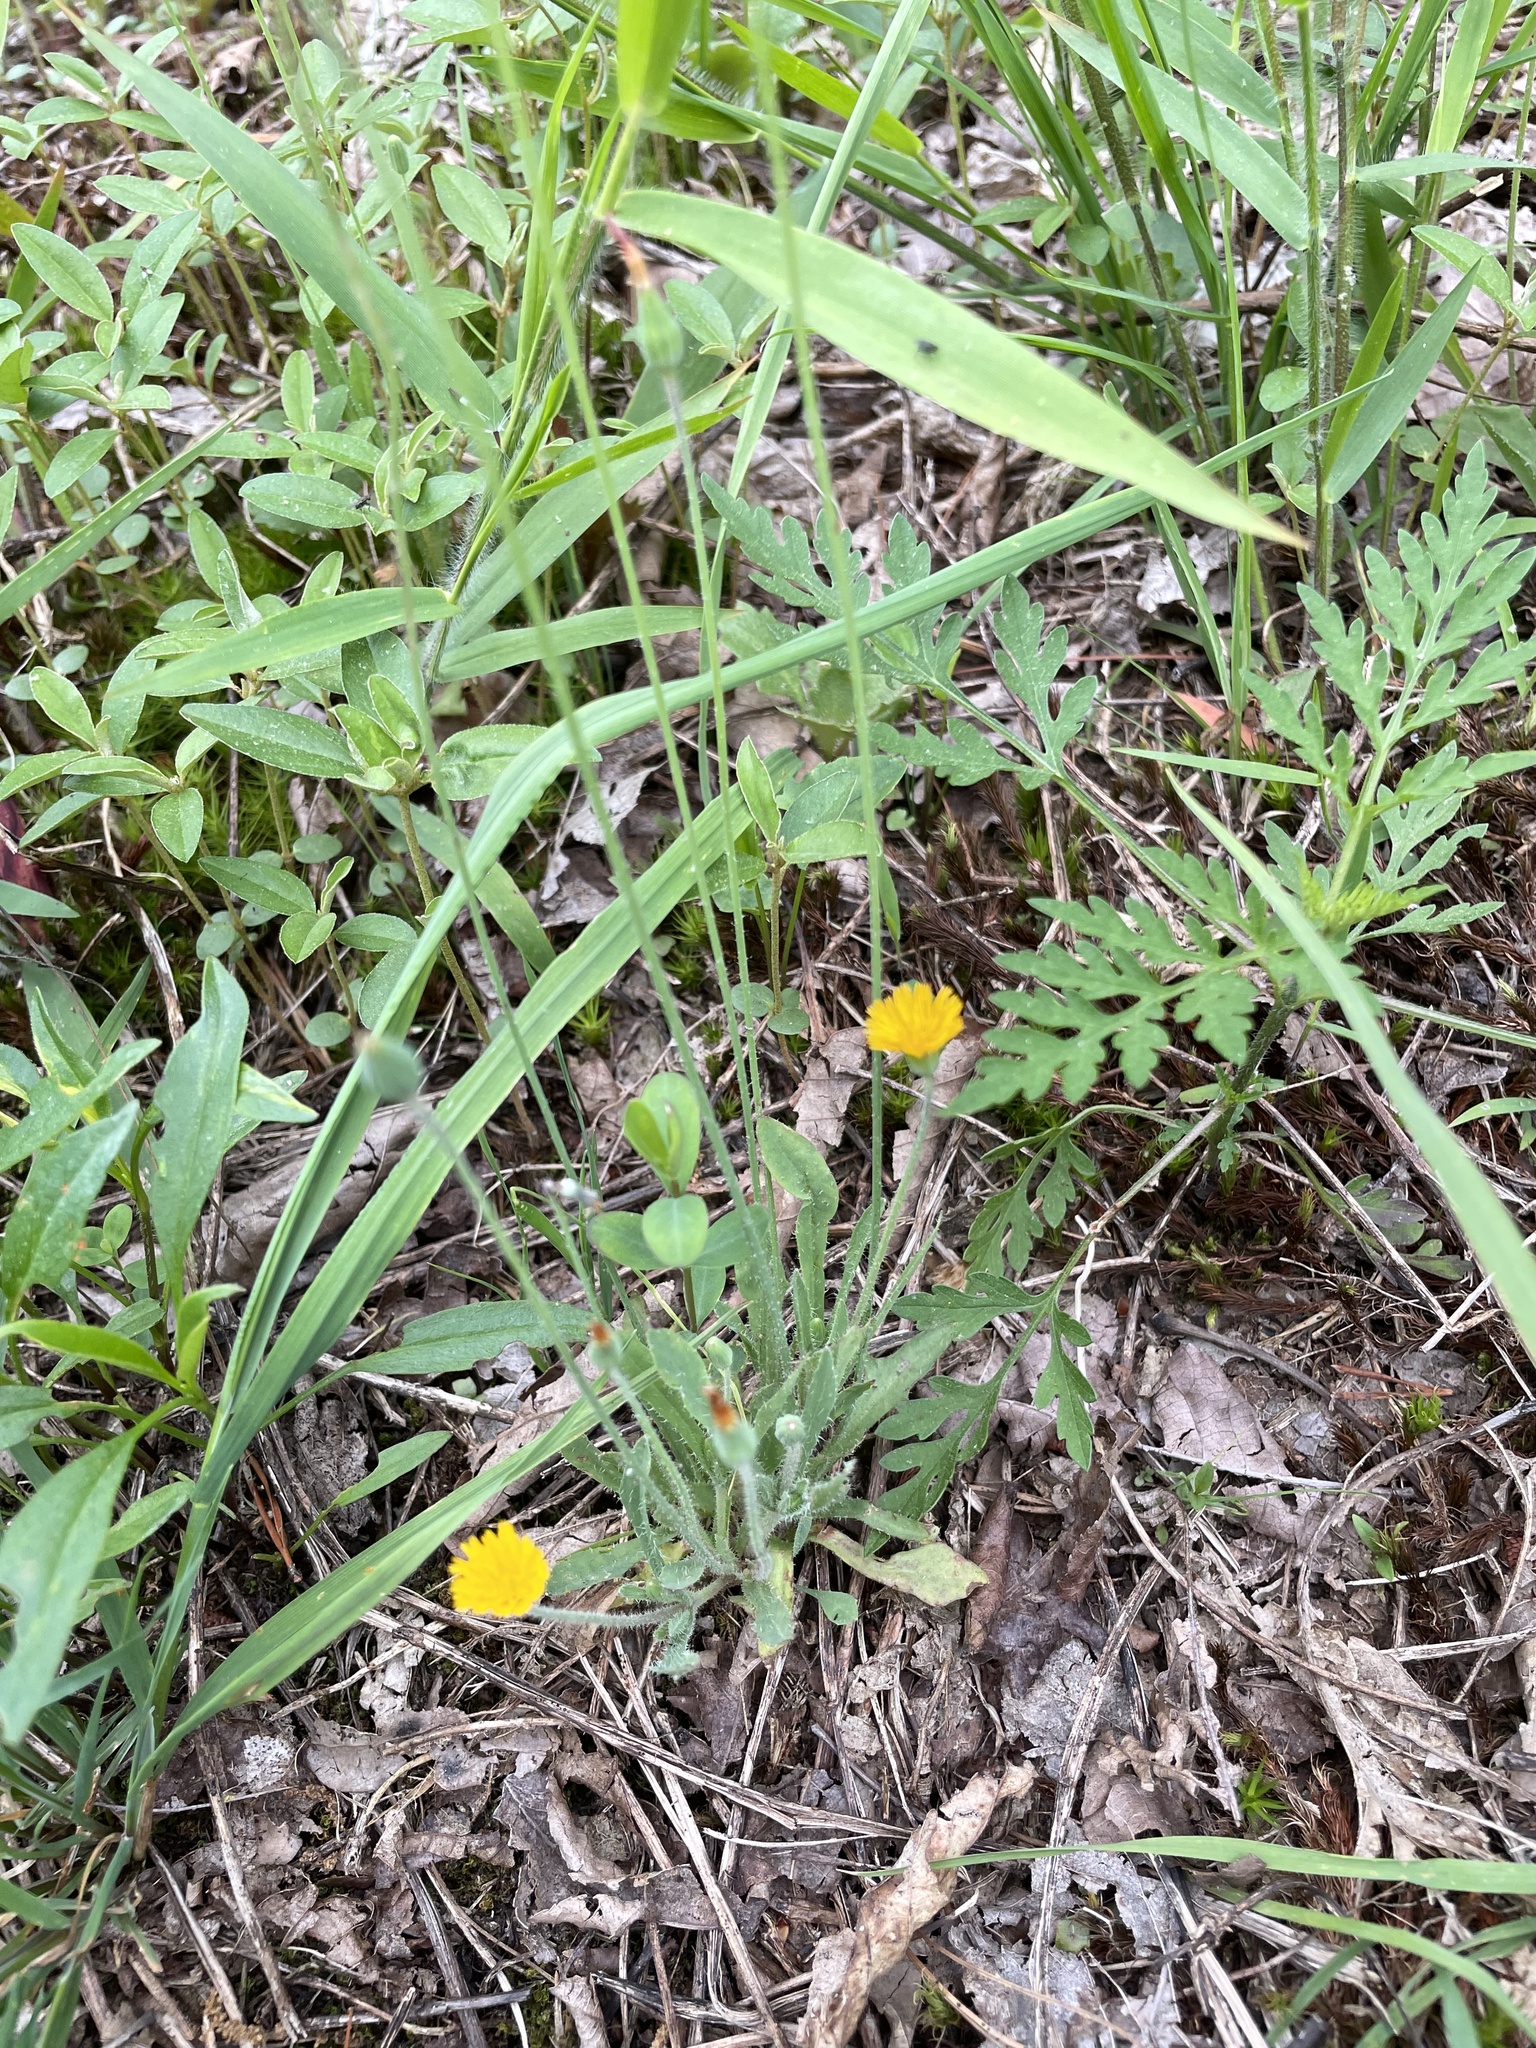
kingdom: Plantae
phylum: Tracheophyta
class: Magnoliopsida
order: Asterales
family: Asteraceae
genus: Krigia
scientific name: Krigia virginica
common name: Virginia dwarf-dandelion
